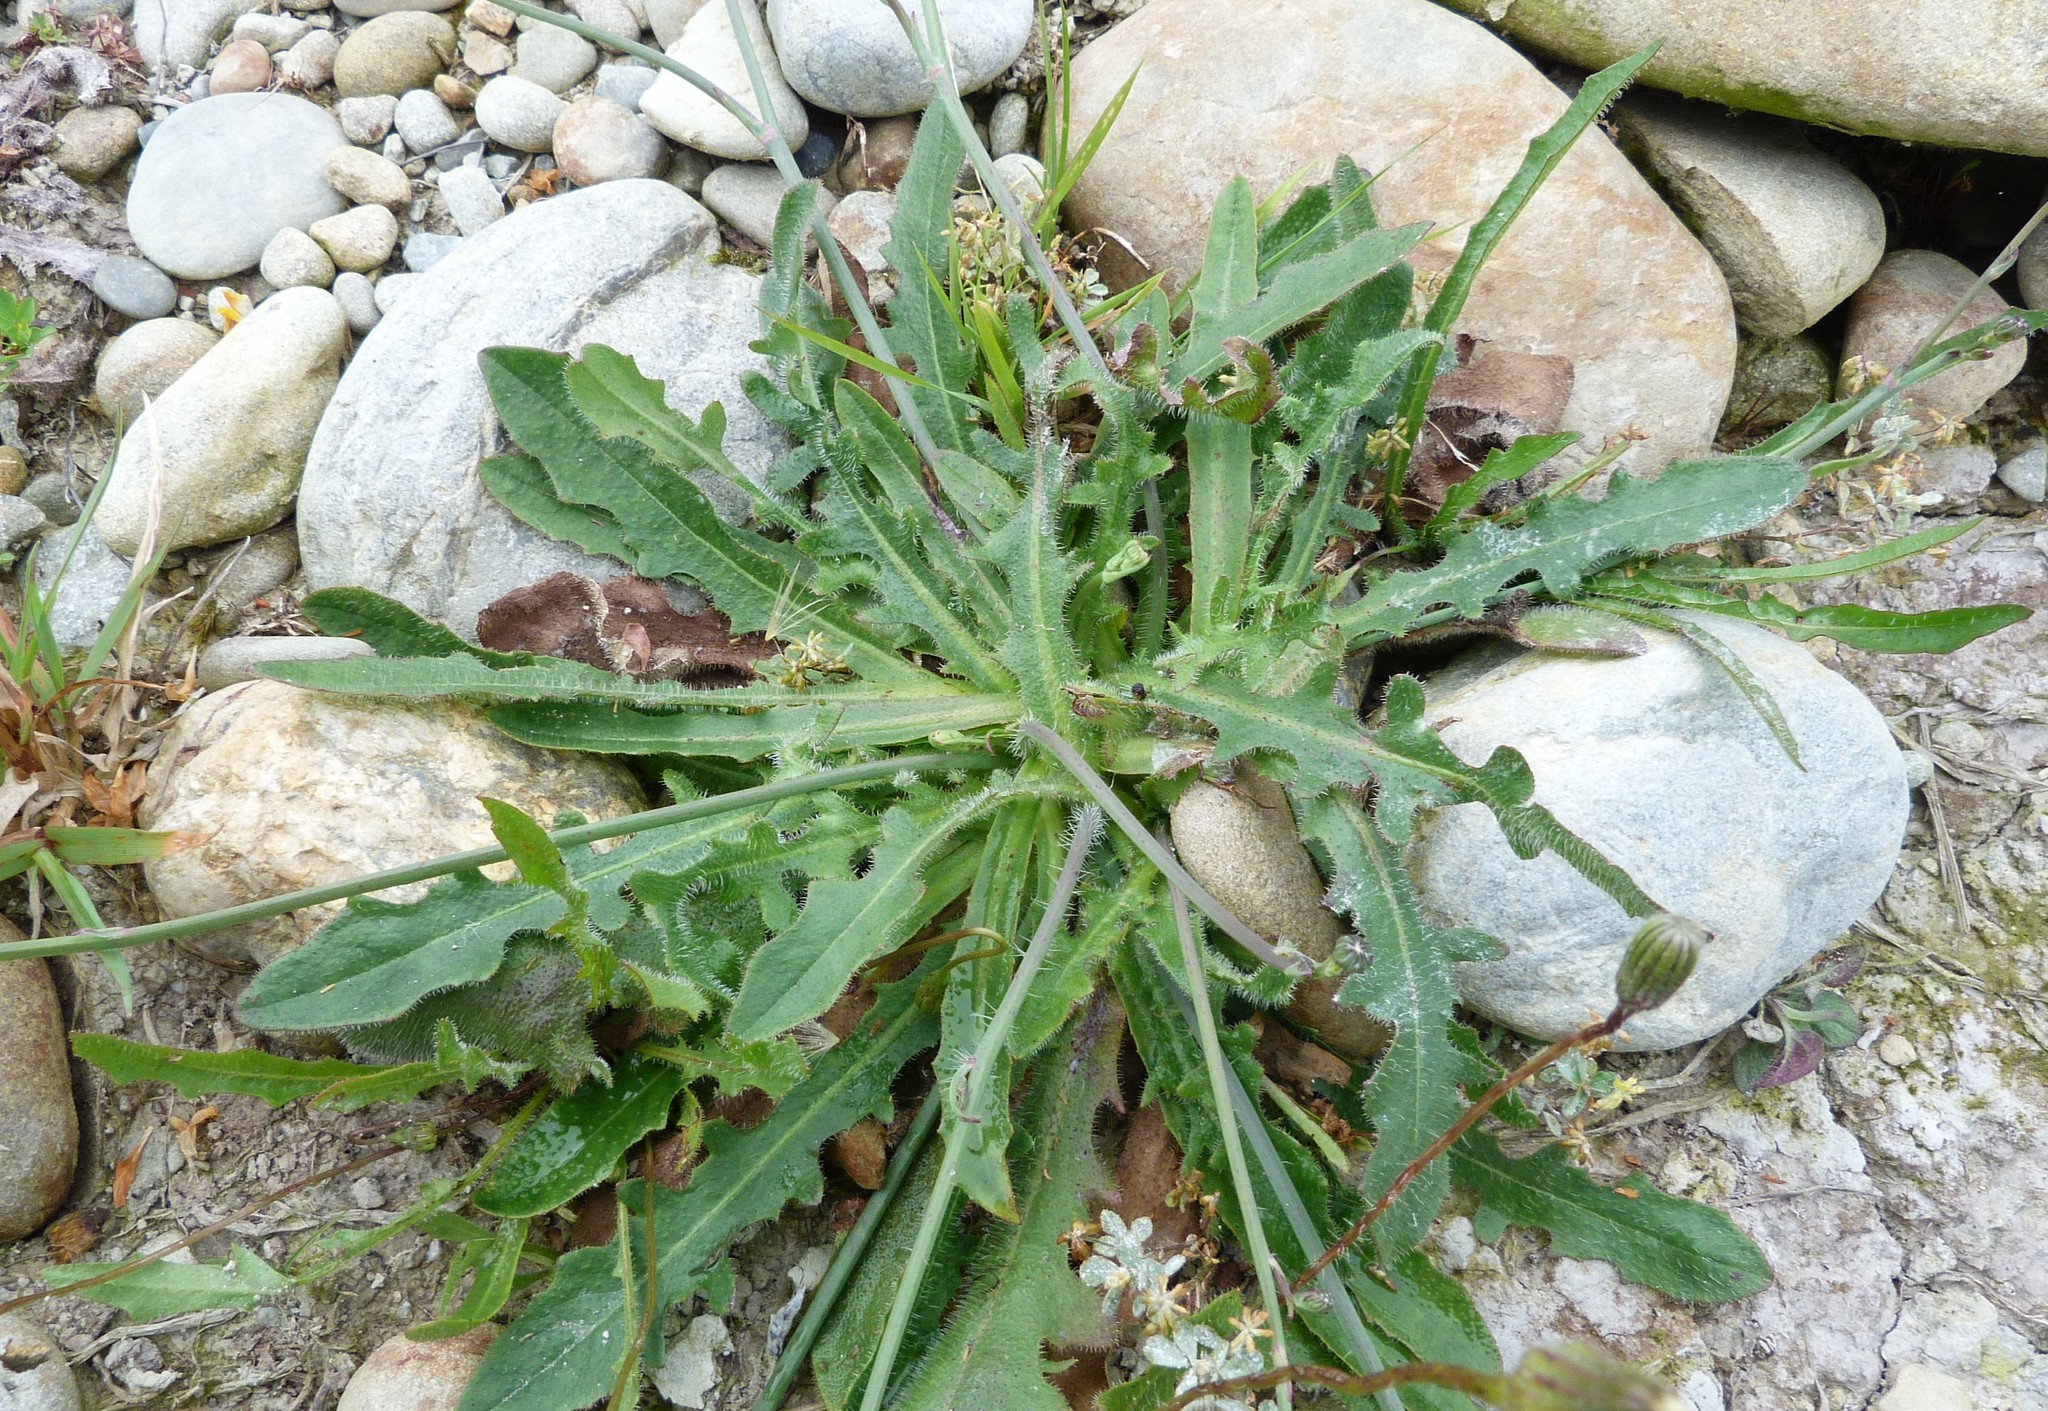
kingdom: Plantae
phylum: Tracheophyta
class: Magnoliopsida
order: Asterales
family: Asteraceae
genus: Hypochaeris
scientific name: Hypochaeris radicata
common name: Flatweed
